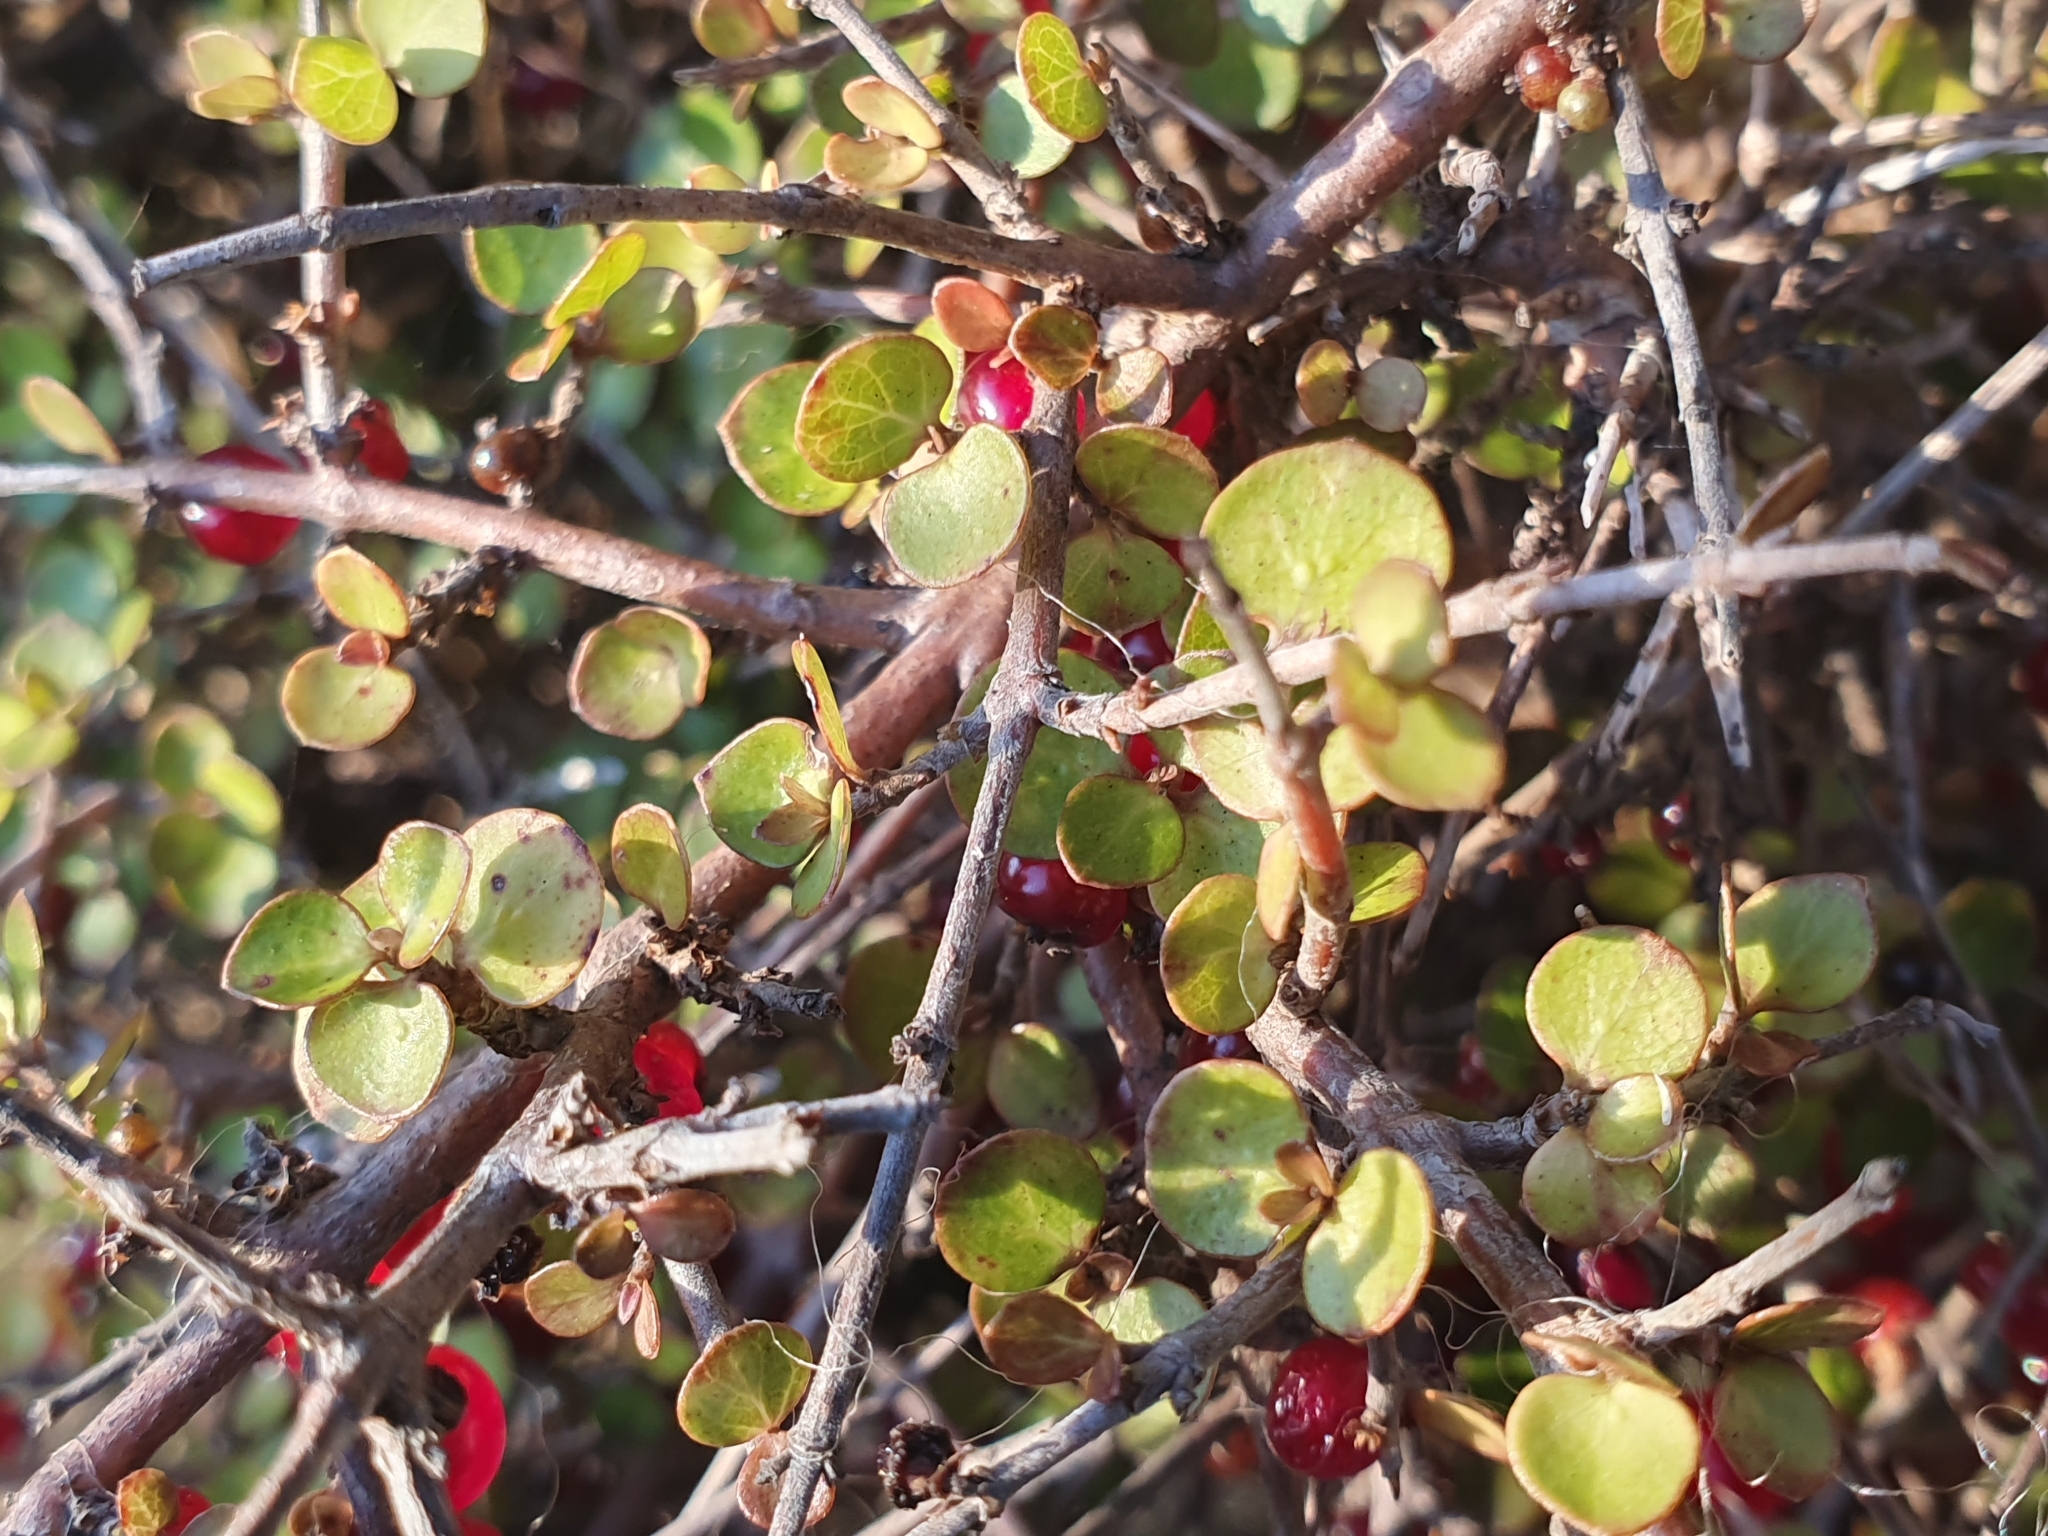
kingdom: Plantae
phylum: Tracheophyta
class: Magnoliopsida
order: Gentianales
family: Rubiaceae
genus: Coprosma
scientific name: Coprosma rhamnoides
